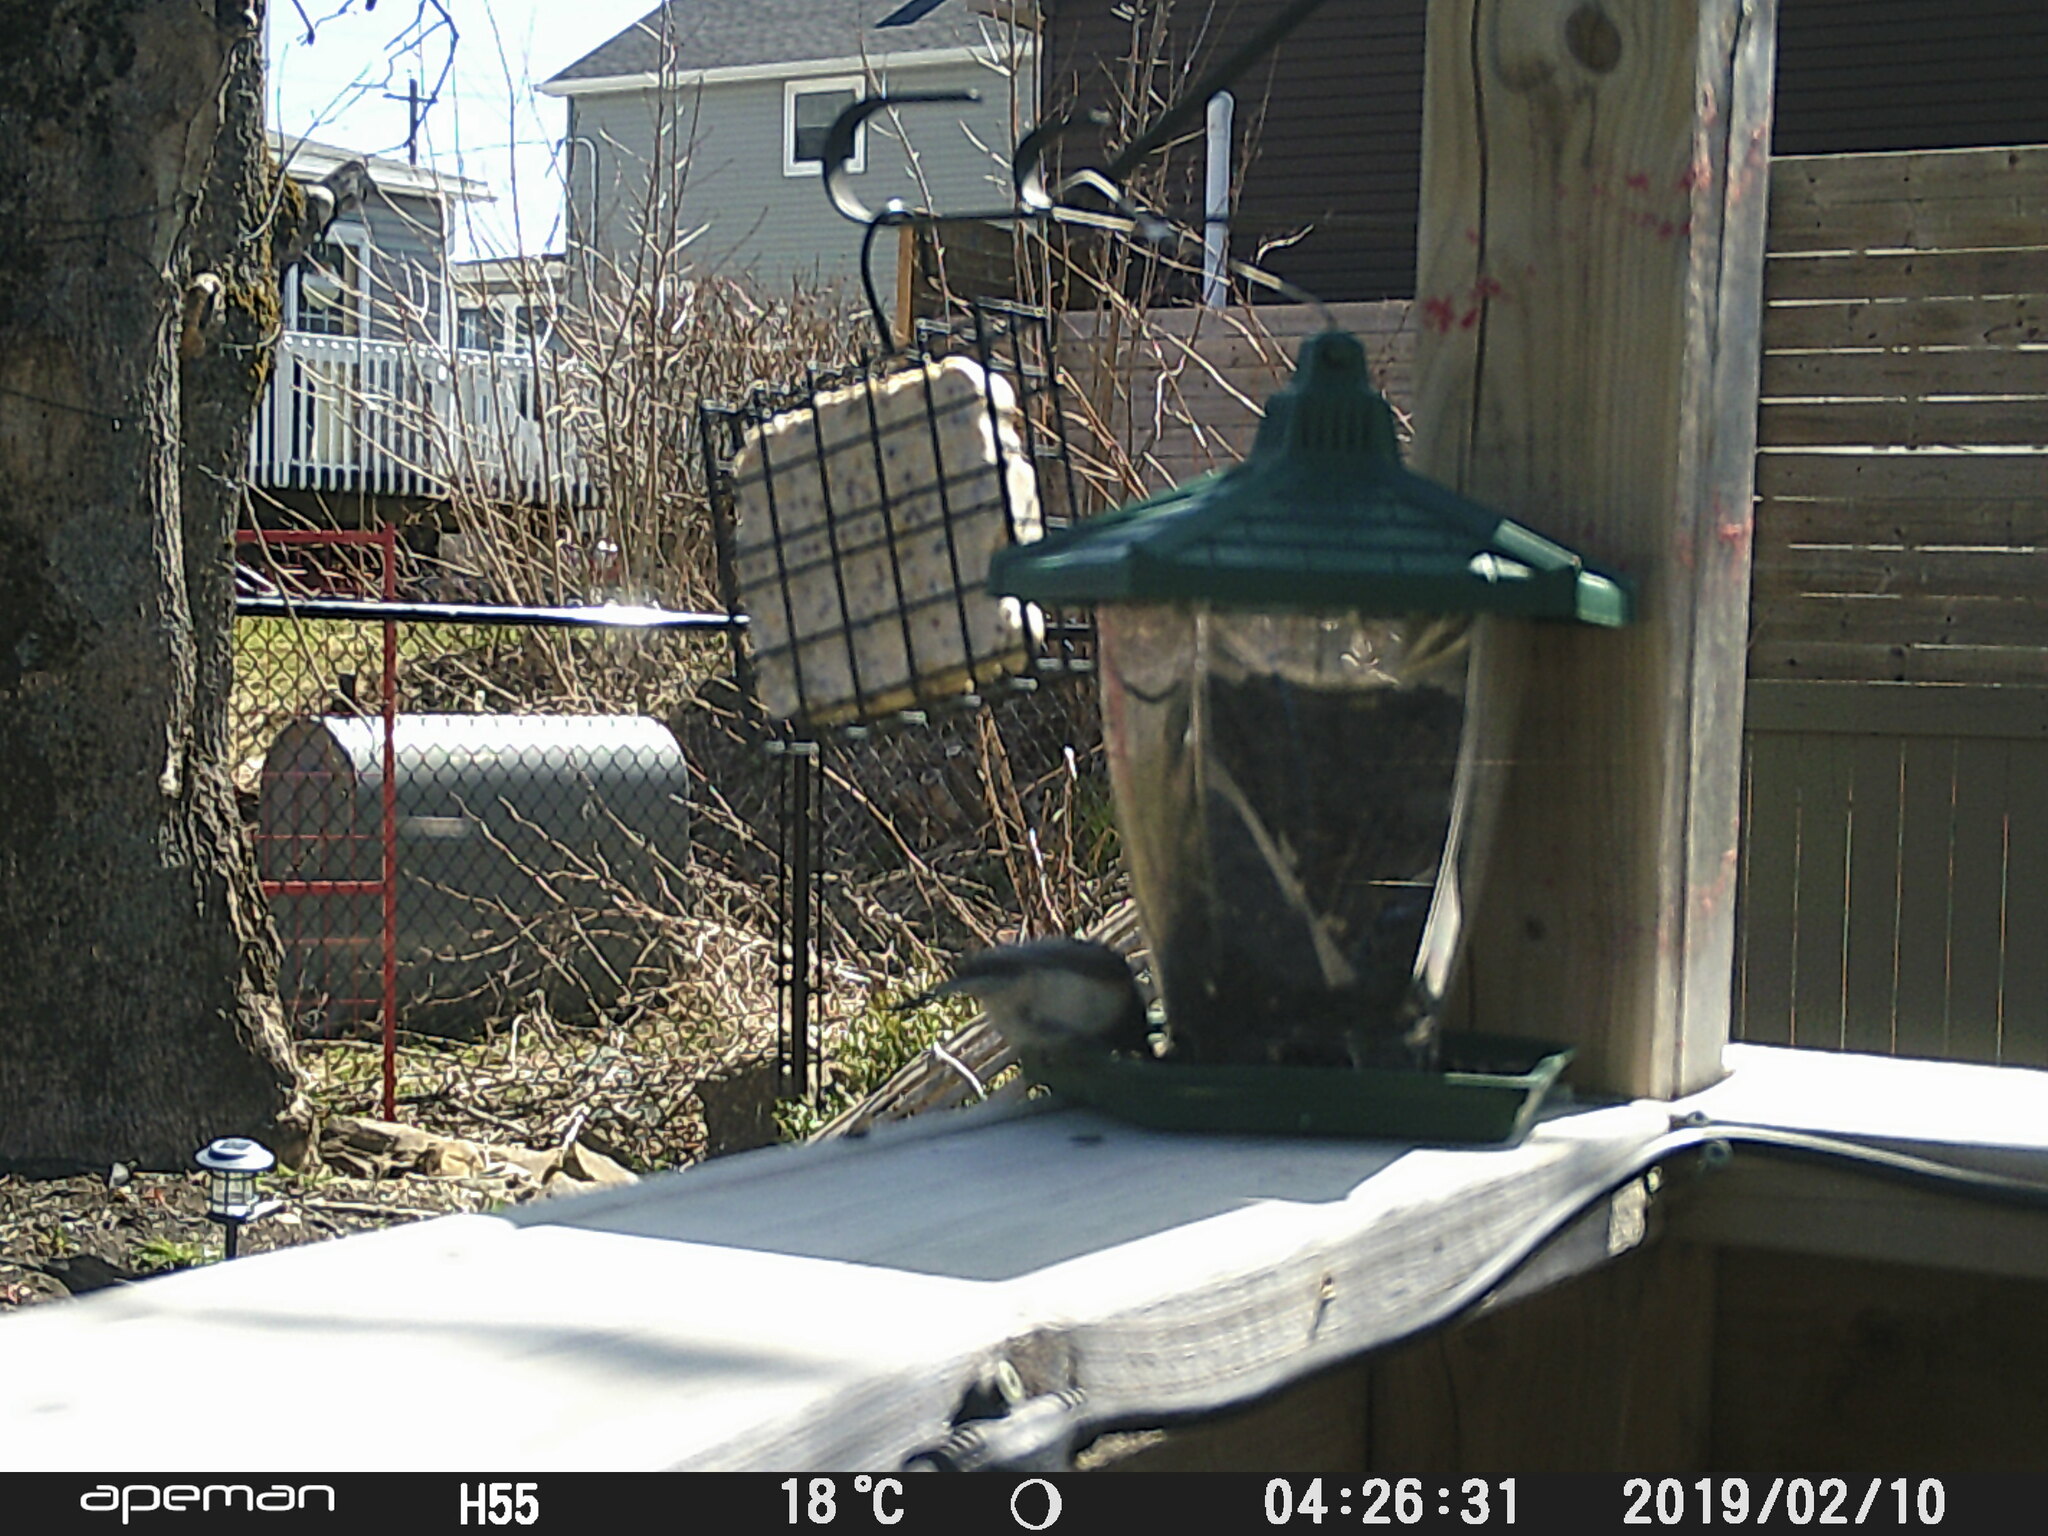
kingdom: Animalia
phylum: Chordata
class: Aves
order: Passeriformes
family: Paridae
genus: Poecile
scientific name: Poecile atricapillus
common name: Black-capped chickadee
